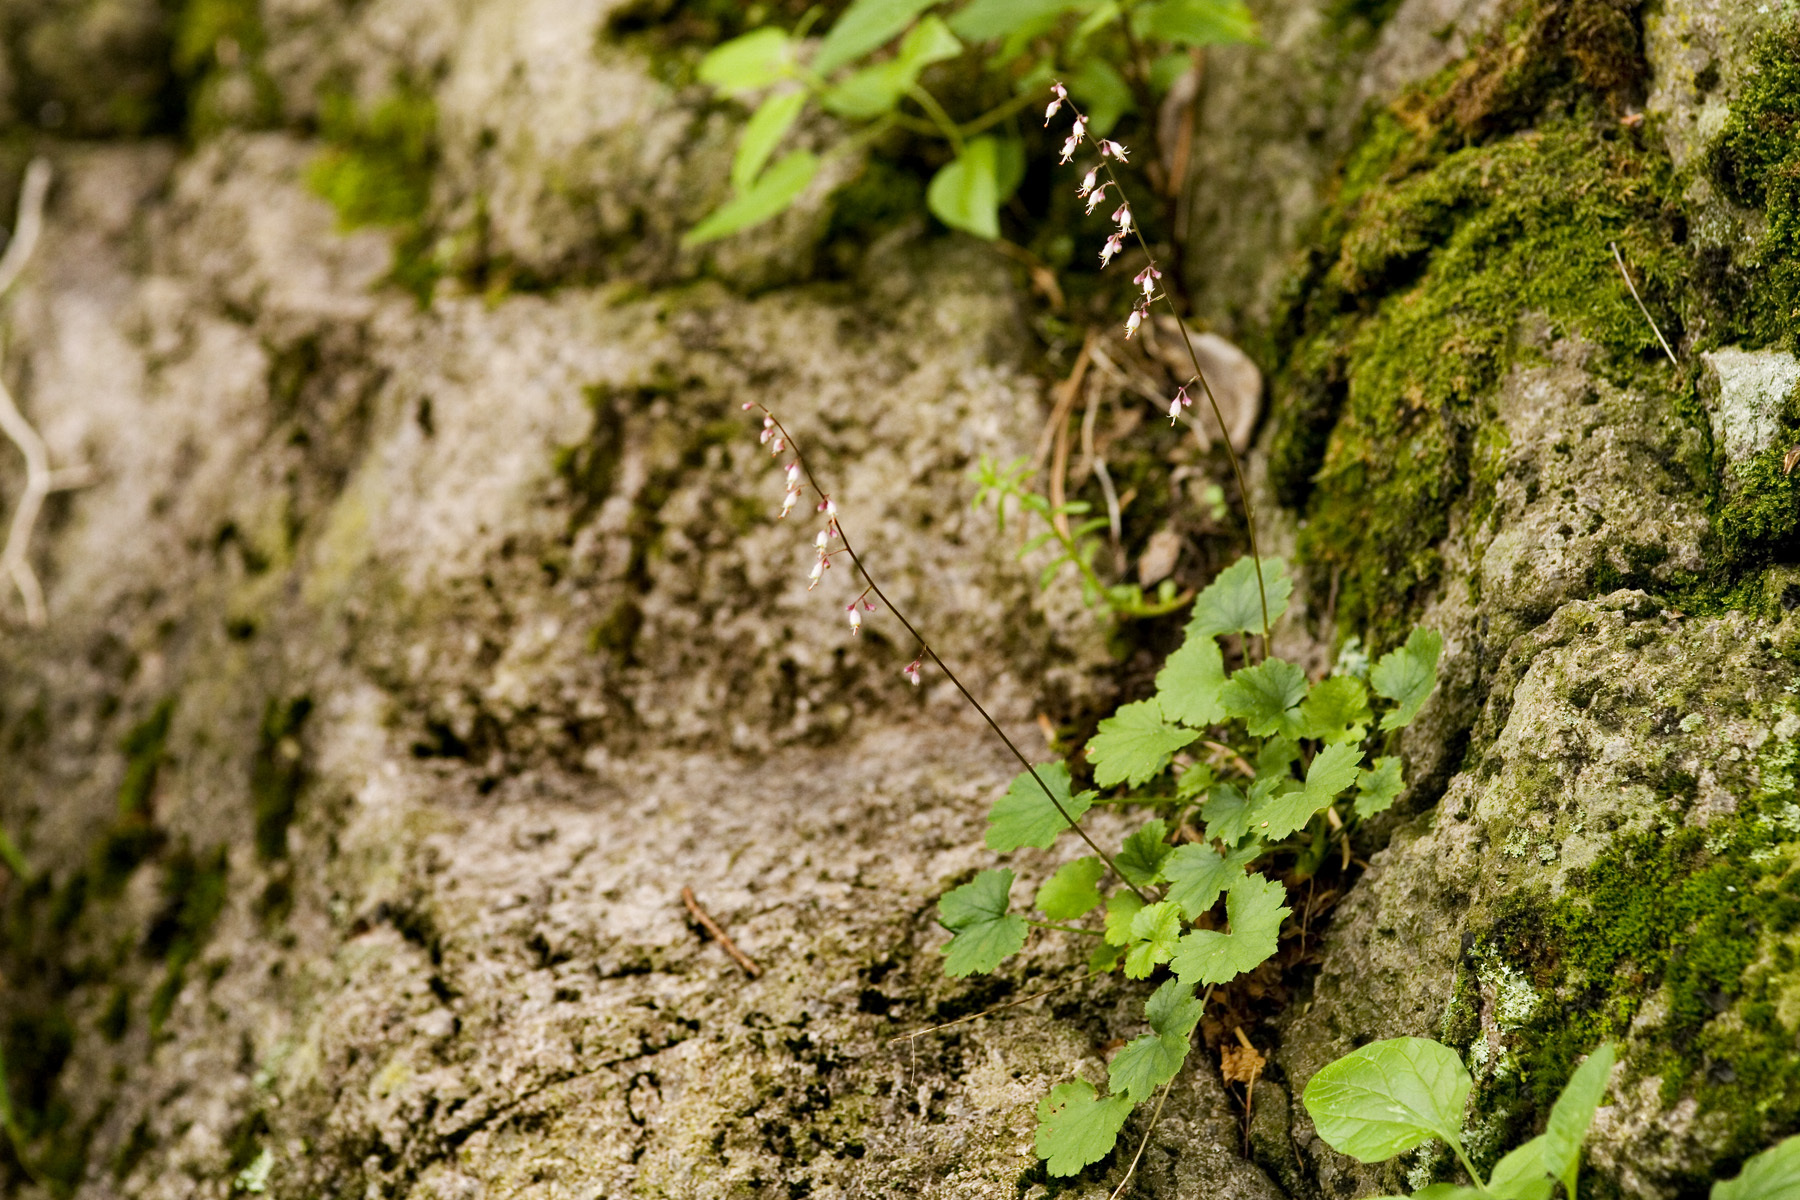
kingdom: Plantae
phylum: Tracheophyta
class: Magnoliopsida
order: Saxifragales
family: Saxifragaceae
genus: Heuchera
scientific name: Heuchera rubescens
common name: Jack-o'the-rocks
